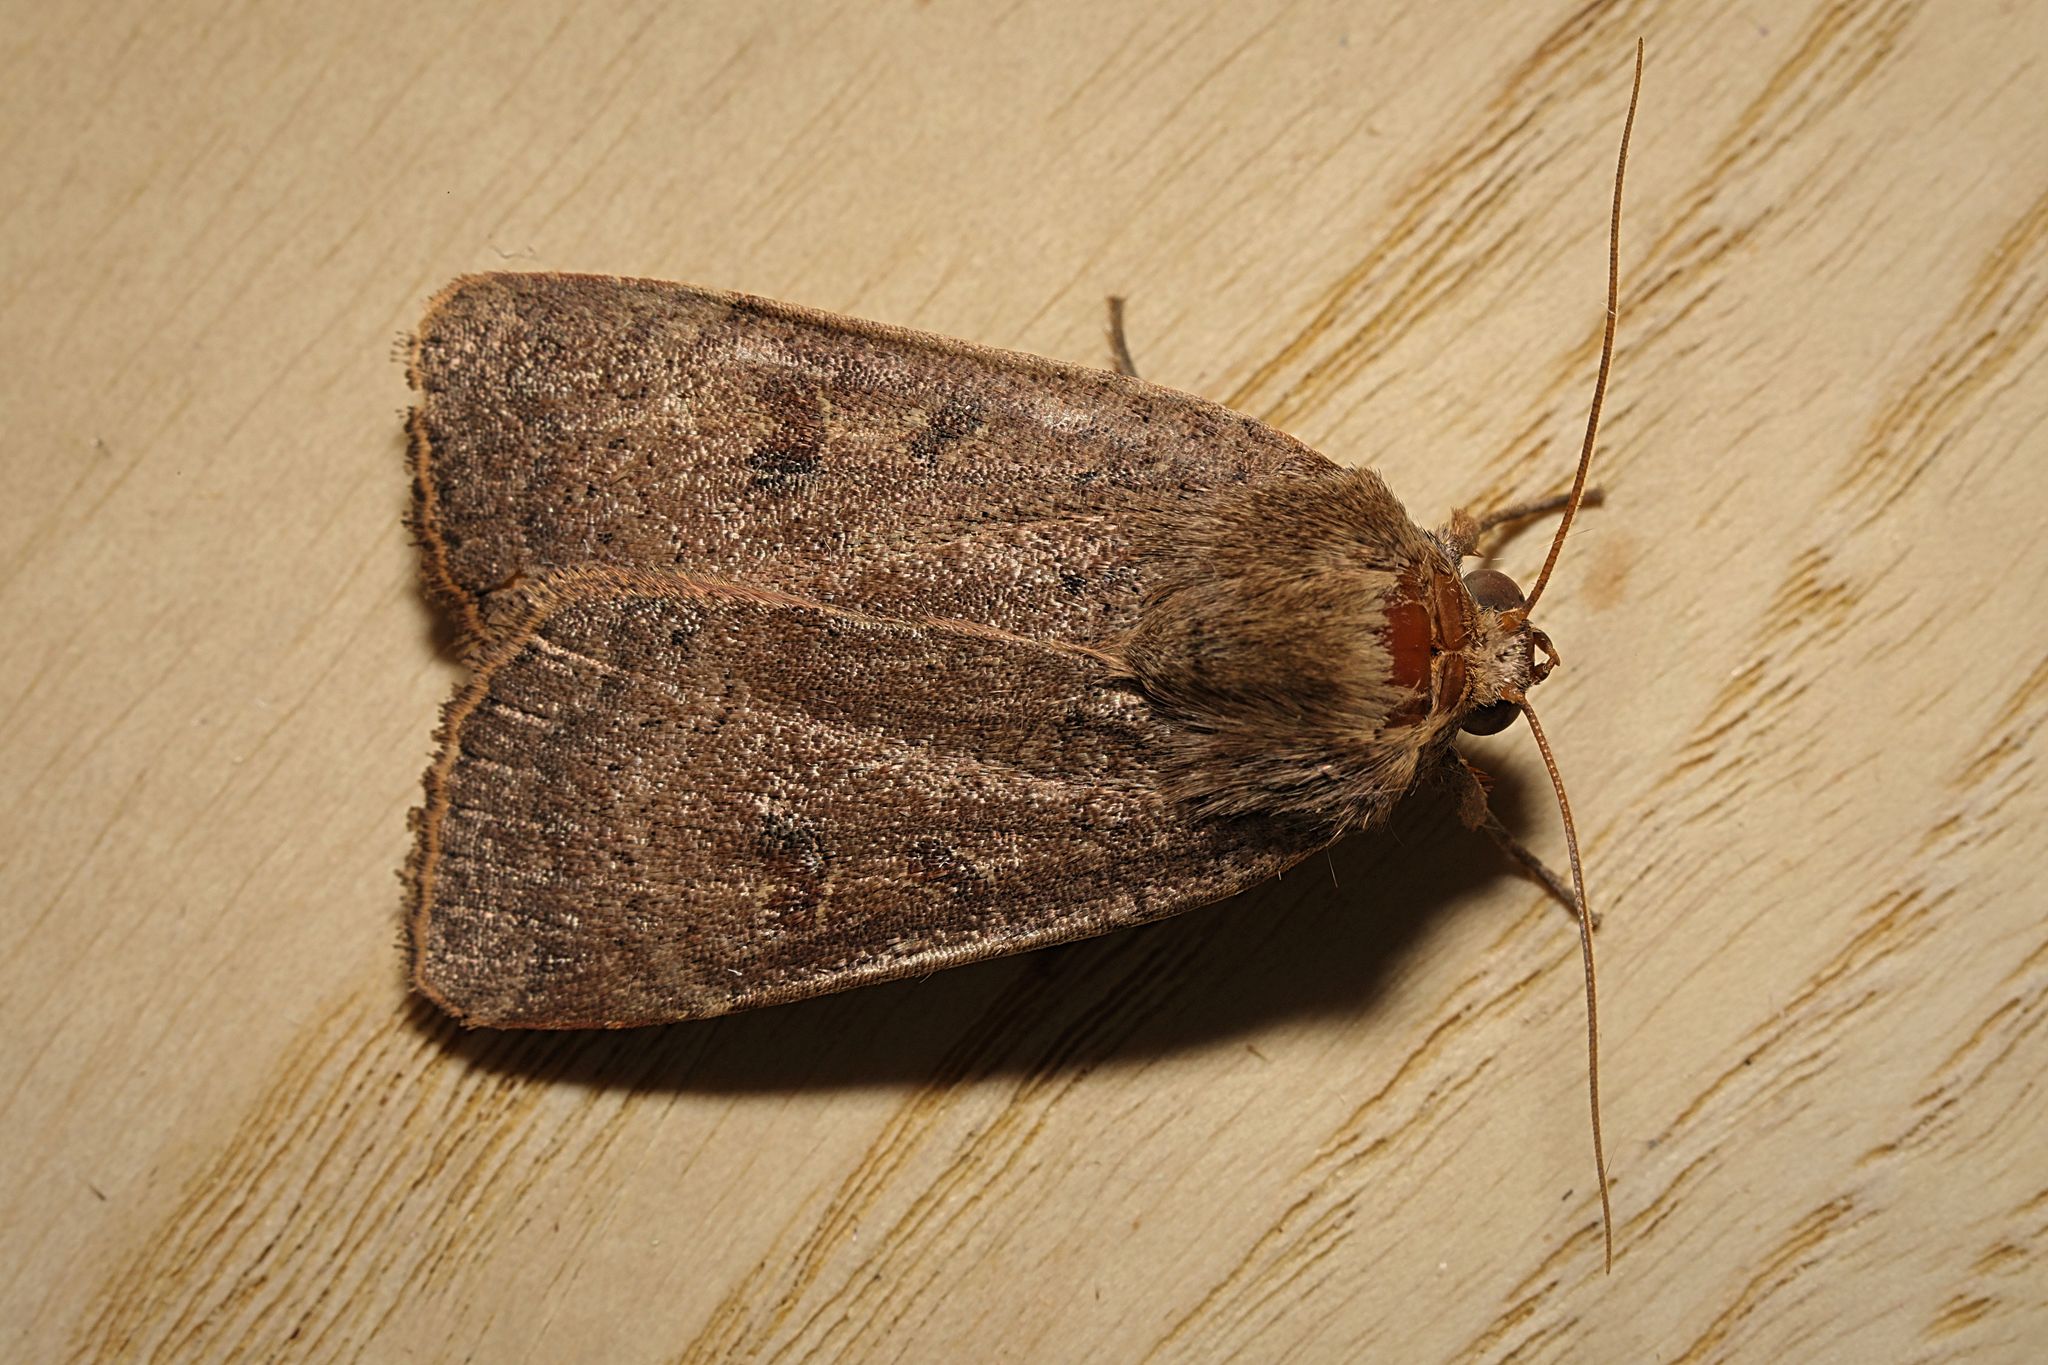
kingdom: Animalia
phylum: Arthropoda
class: Insecta
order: Lepidoptera
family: Noctuidae
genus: Noctua
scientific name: Noctua comes
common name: Lesser yellow underwing
